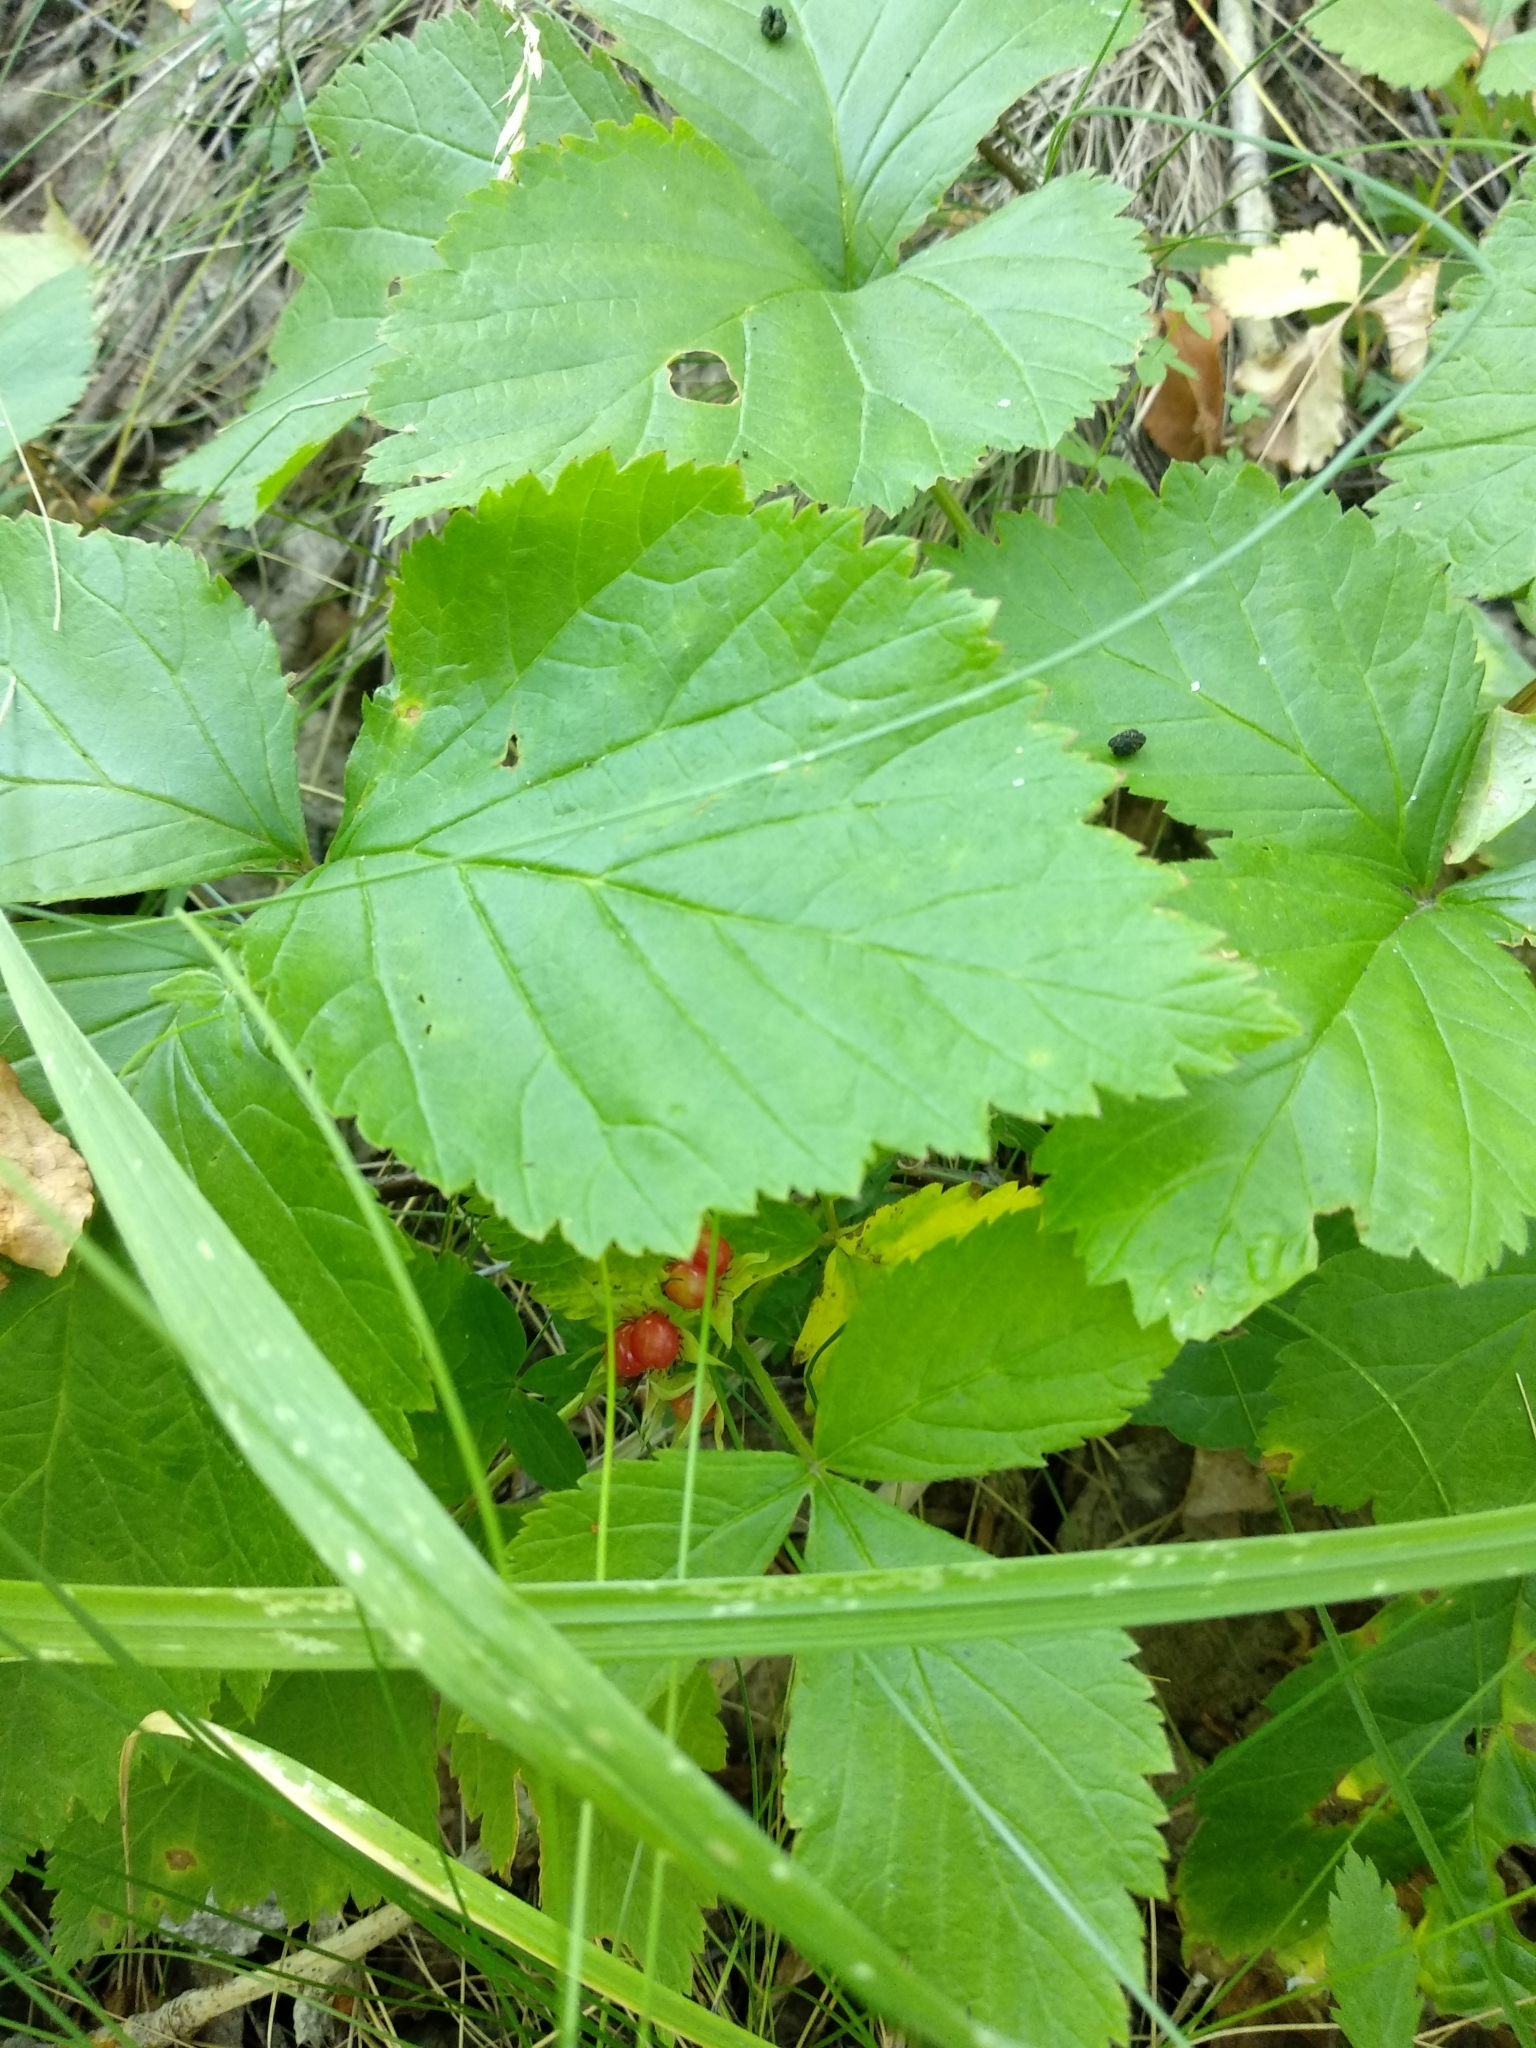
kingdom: Plantae
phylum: Tracheophyta
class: Magnoliopsida
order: Rosales
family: Rosaceae
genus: Rubus
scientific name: Rubus saxatilis
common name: Stone bramble
